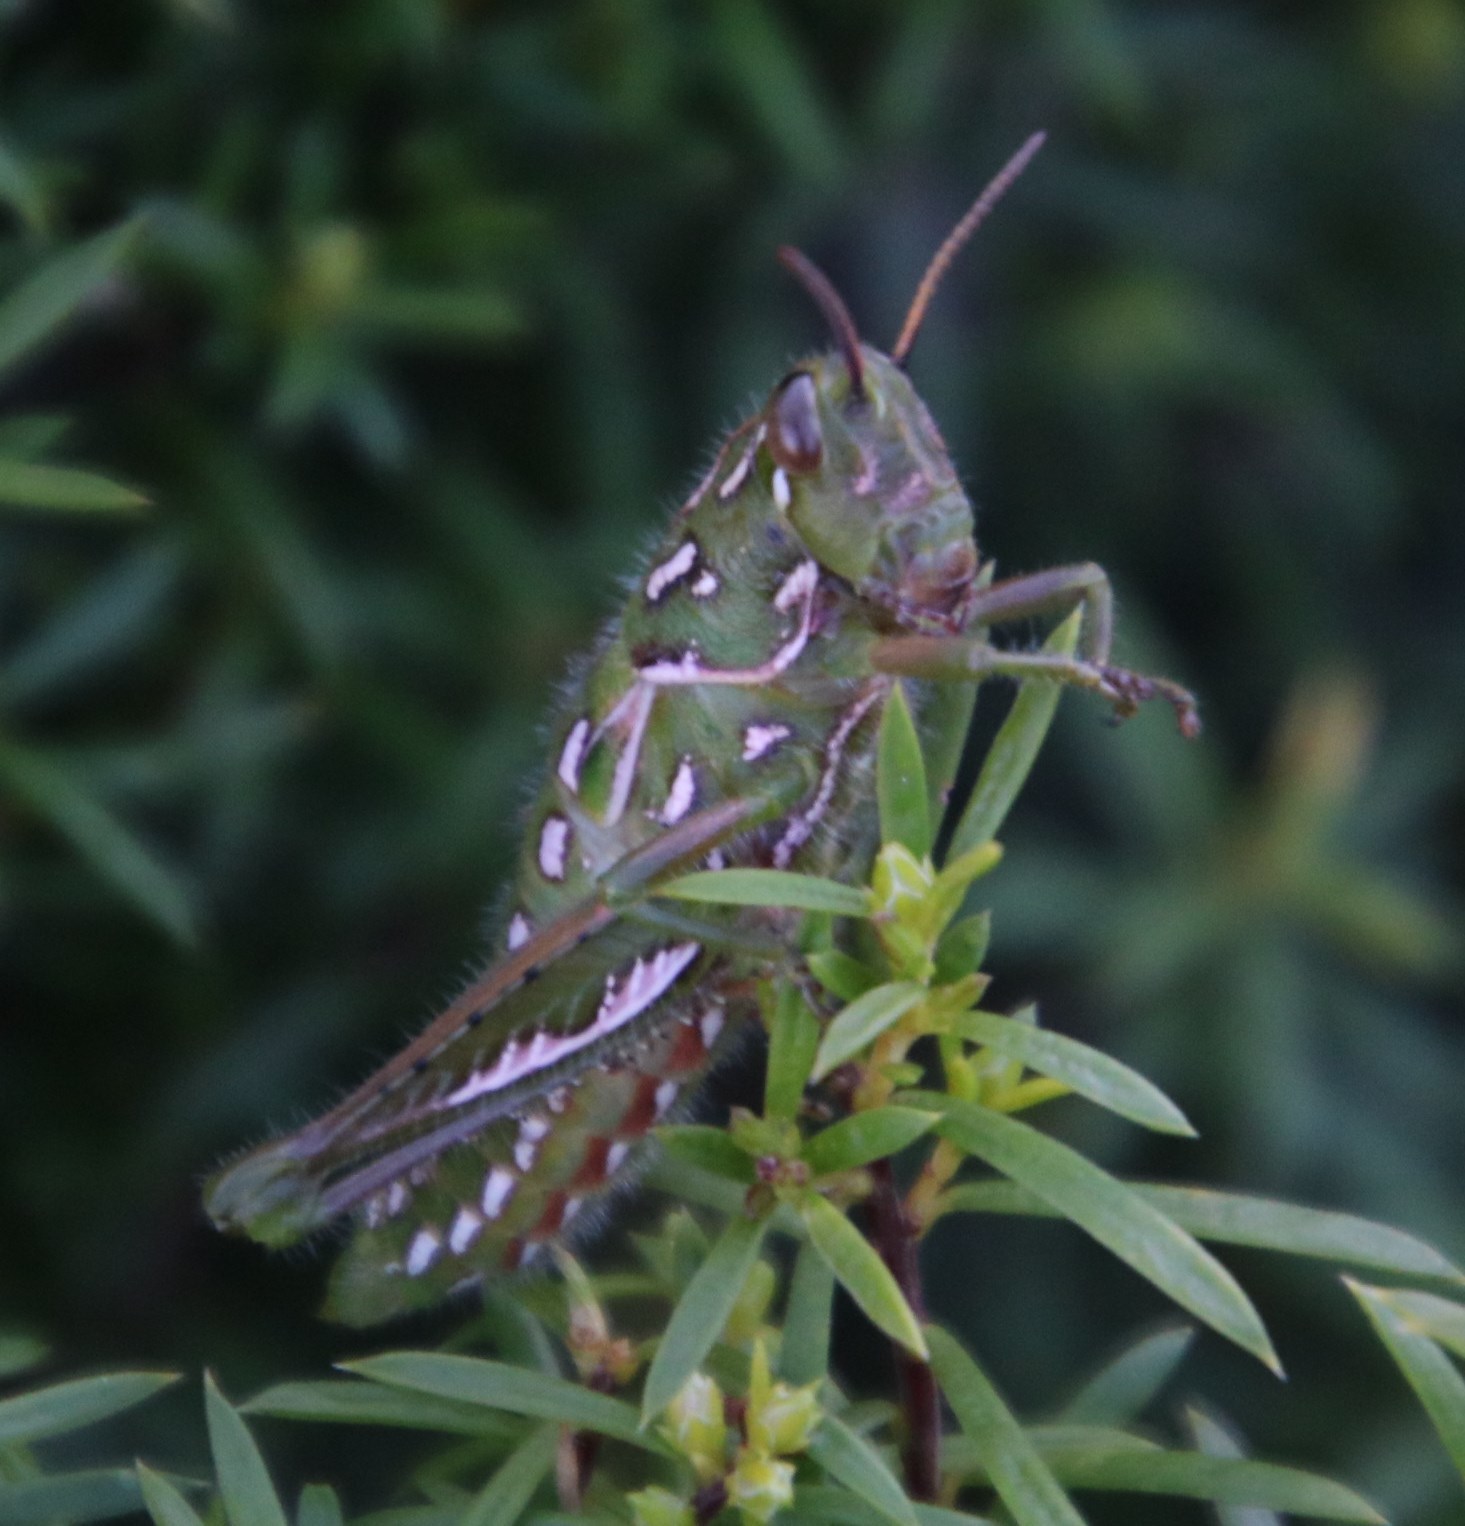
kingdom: Animalia
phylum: Arthropoda
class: Insecta
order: Orthoptera
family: Acrididae
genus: Frontifissia
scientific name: Frontifissia elegans
